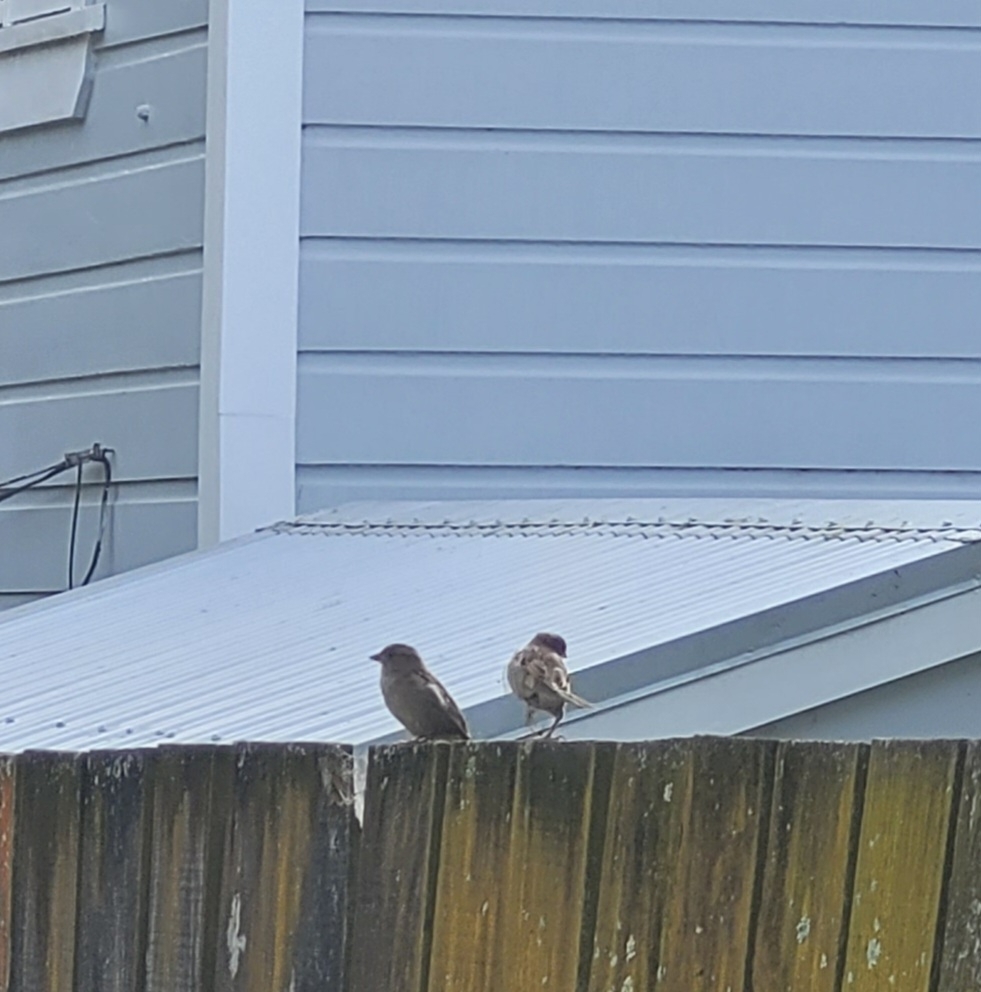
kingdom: Animalia
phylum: Chordata
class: Aves
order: Passeriformes
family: Passeridae
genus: Passer
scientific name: Passer domesticus
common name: House sparrow
